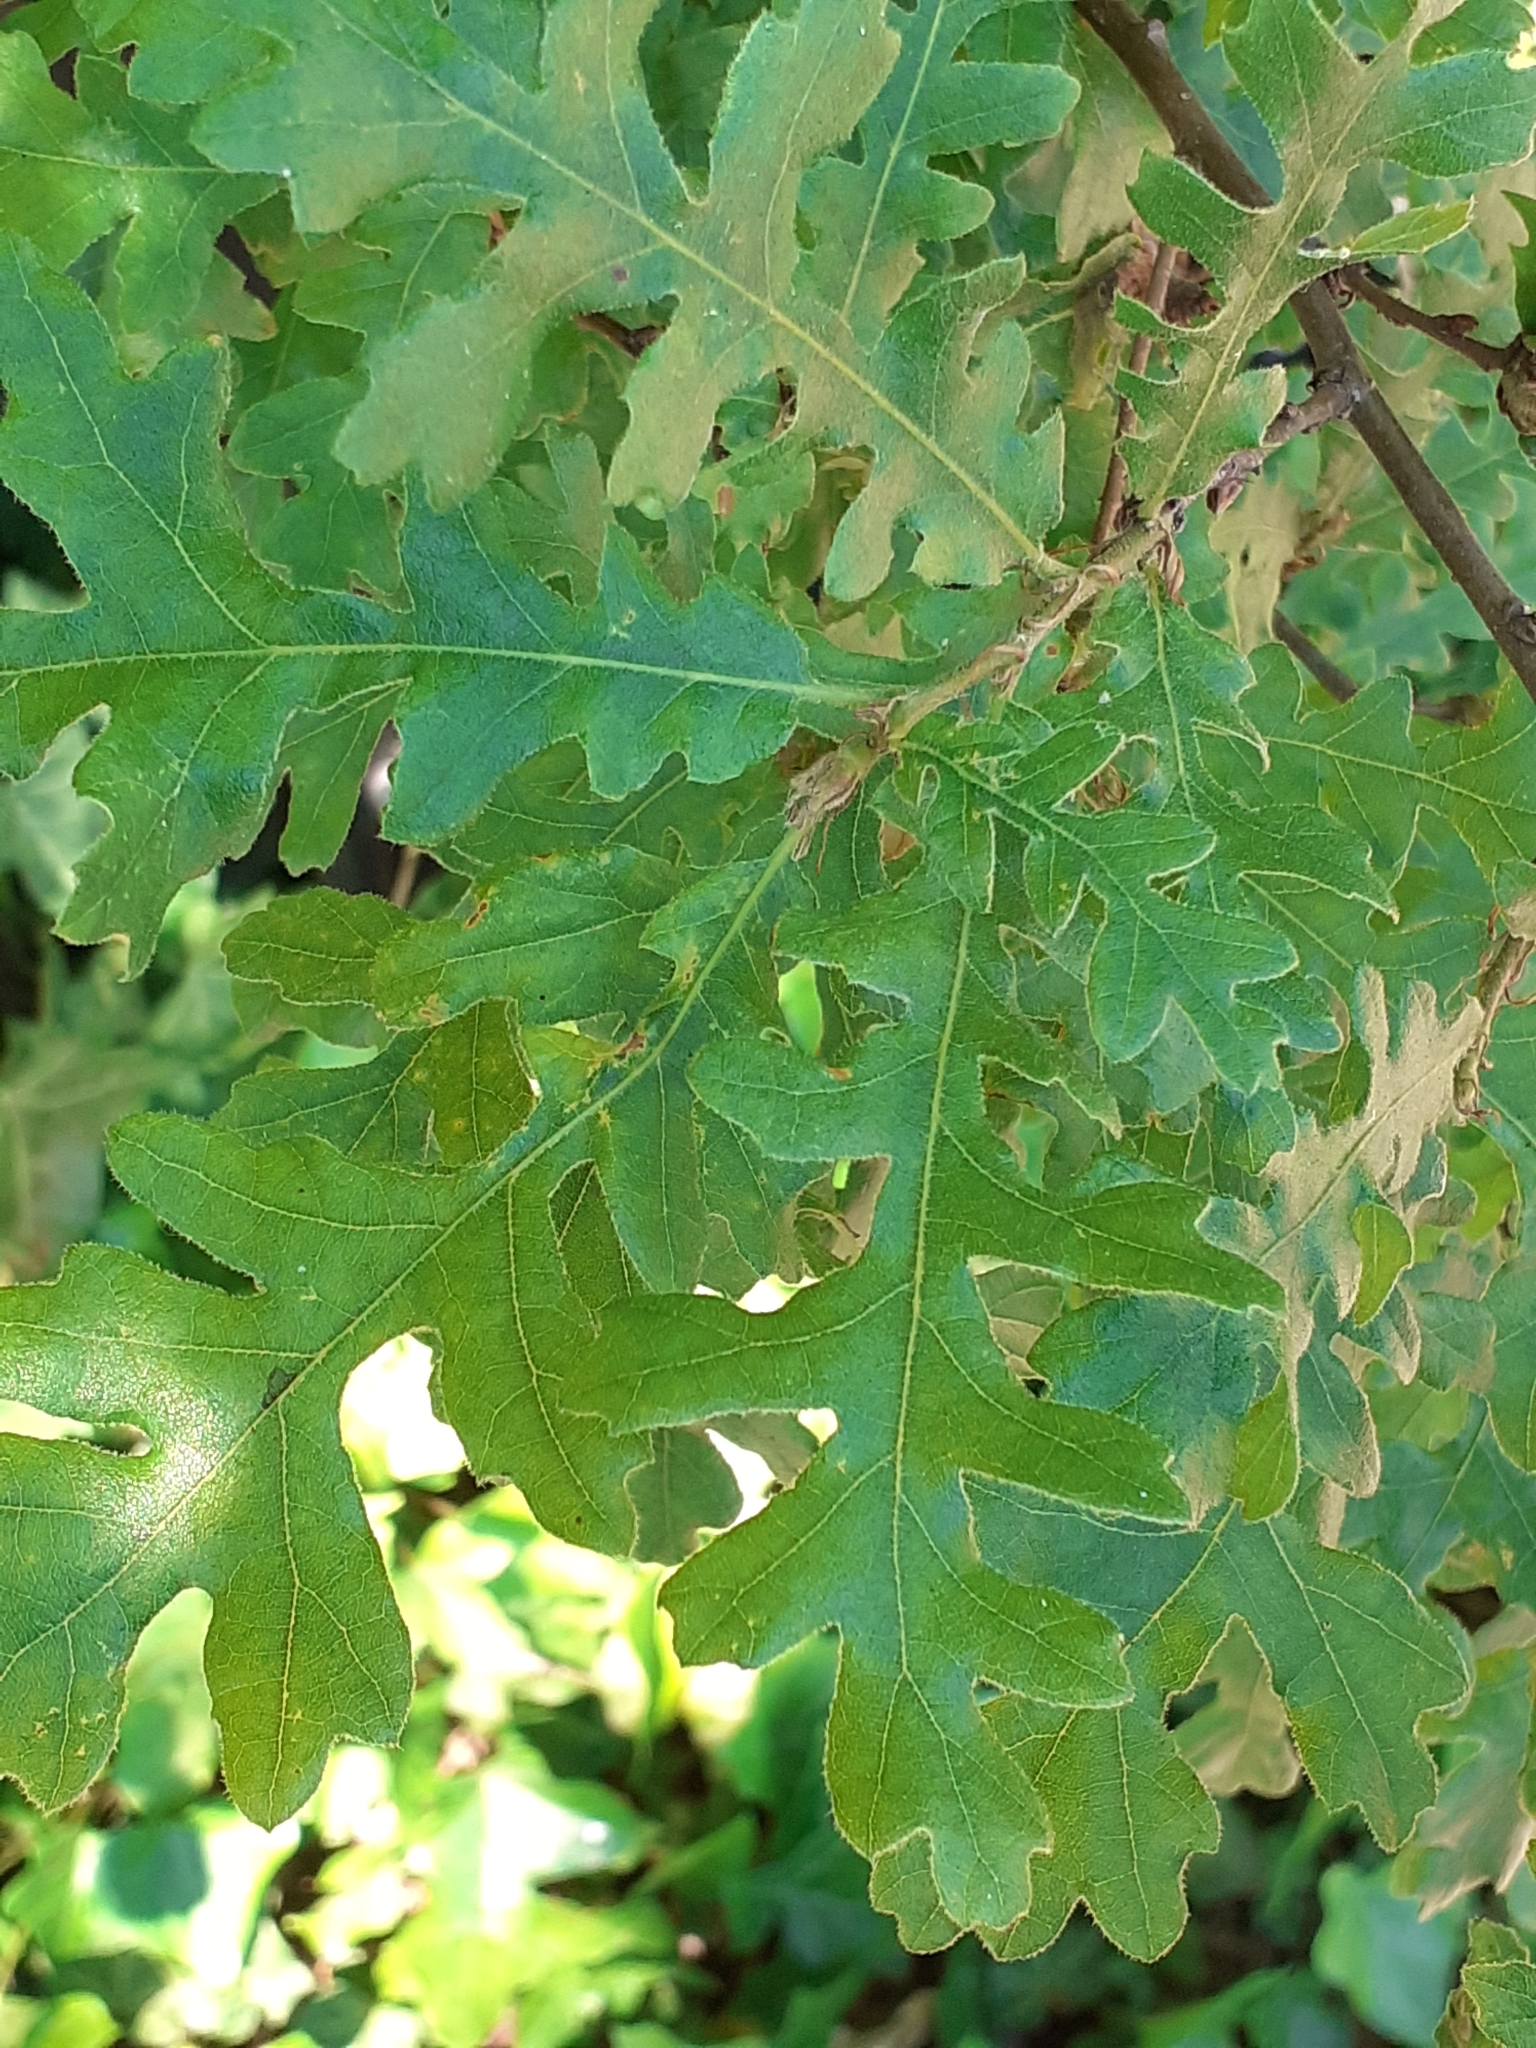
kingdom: Plantae
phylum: Tracheophyta
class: Magnoliopsida
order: Fagales
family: Fagaceae
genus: Quercus
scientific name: Quercus cerris
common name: Turkey oak
